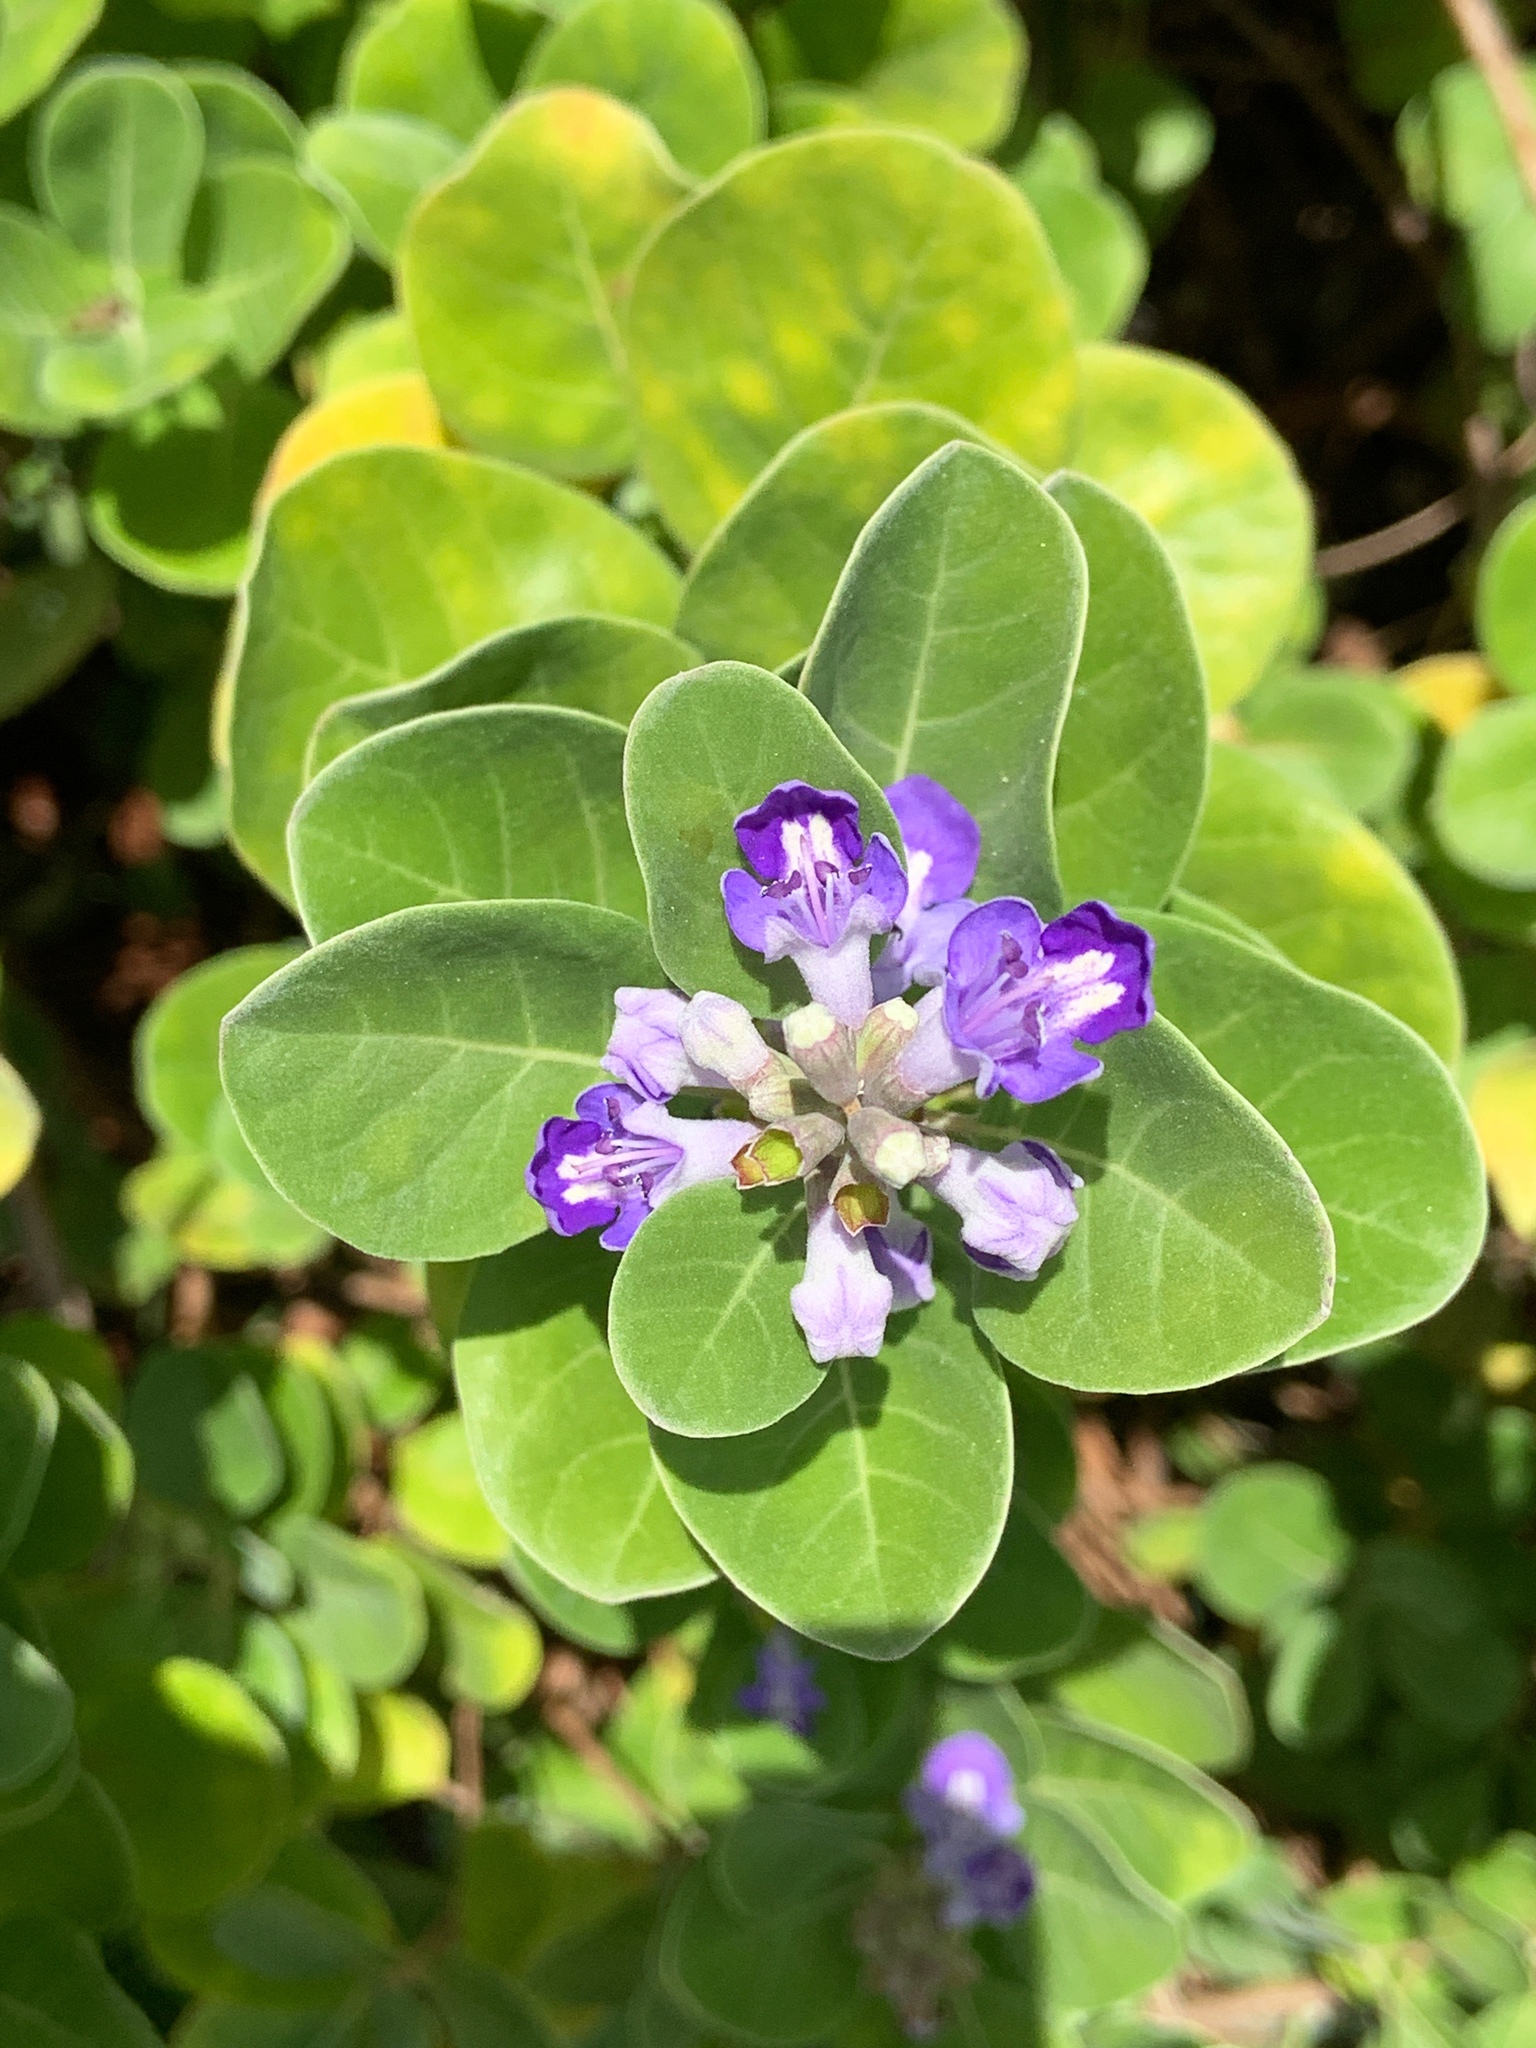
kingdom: Plantae
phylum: Tracheophyta
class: Magnoliopsida
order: Lamiales
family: Lamiaceae
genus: Vitex
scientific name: Vitex rotundifolia
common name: Beach vitex
